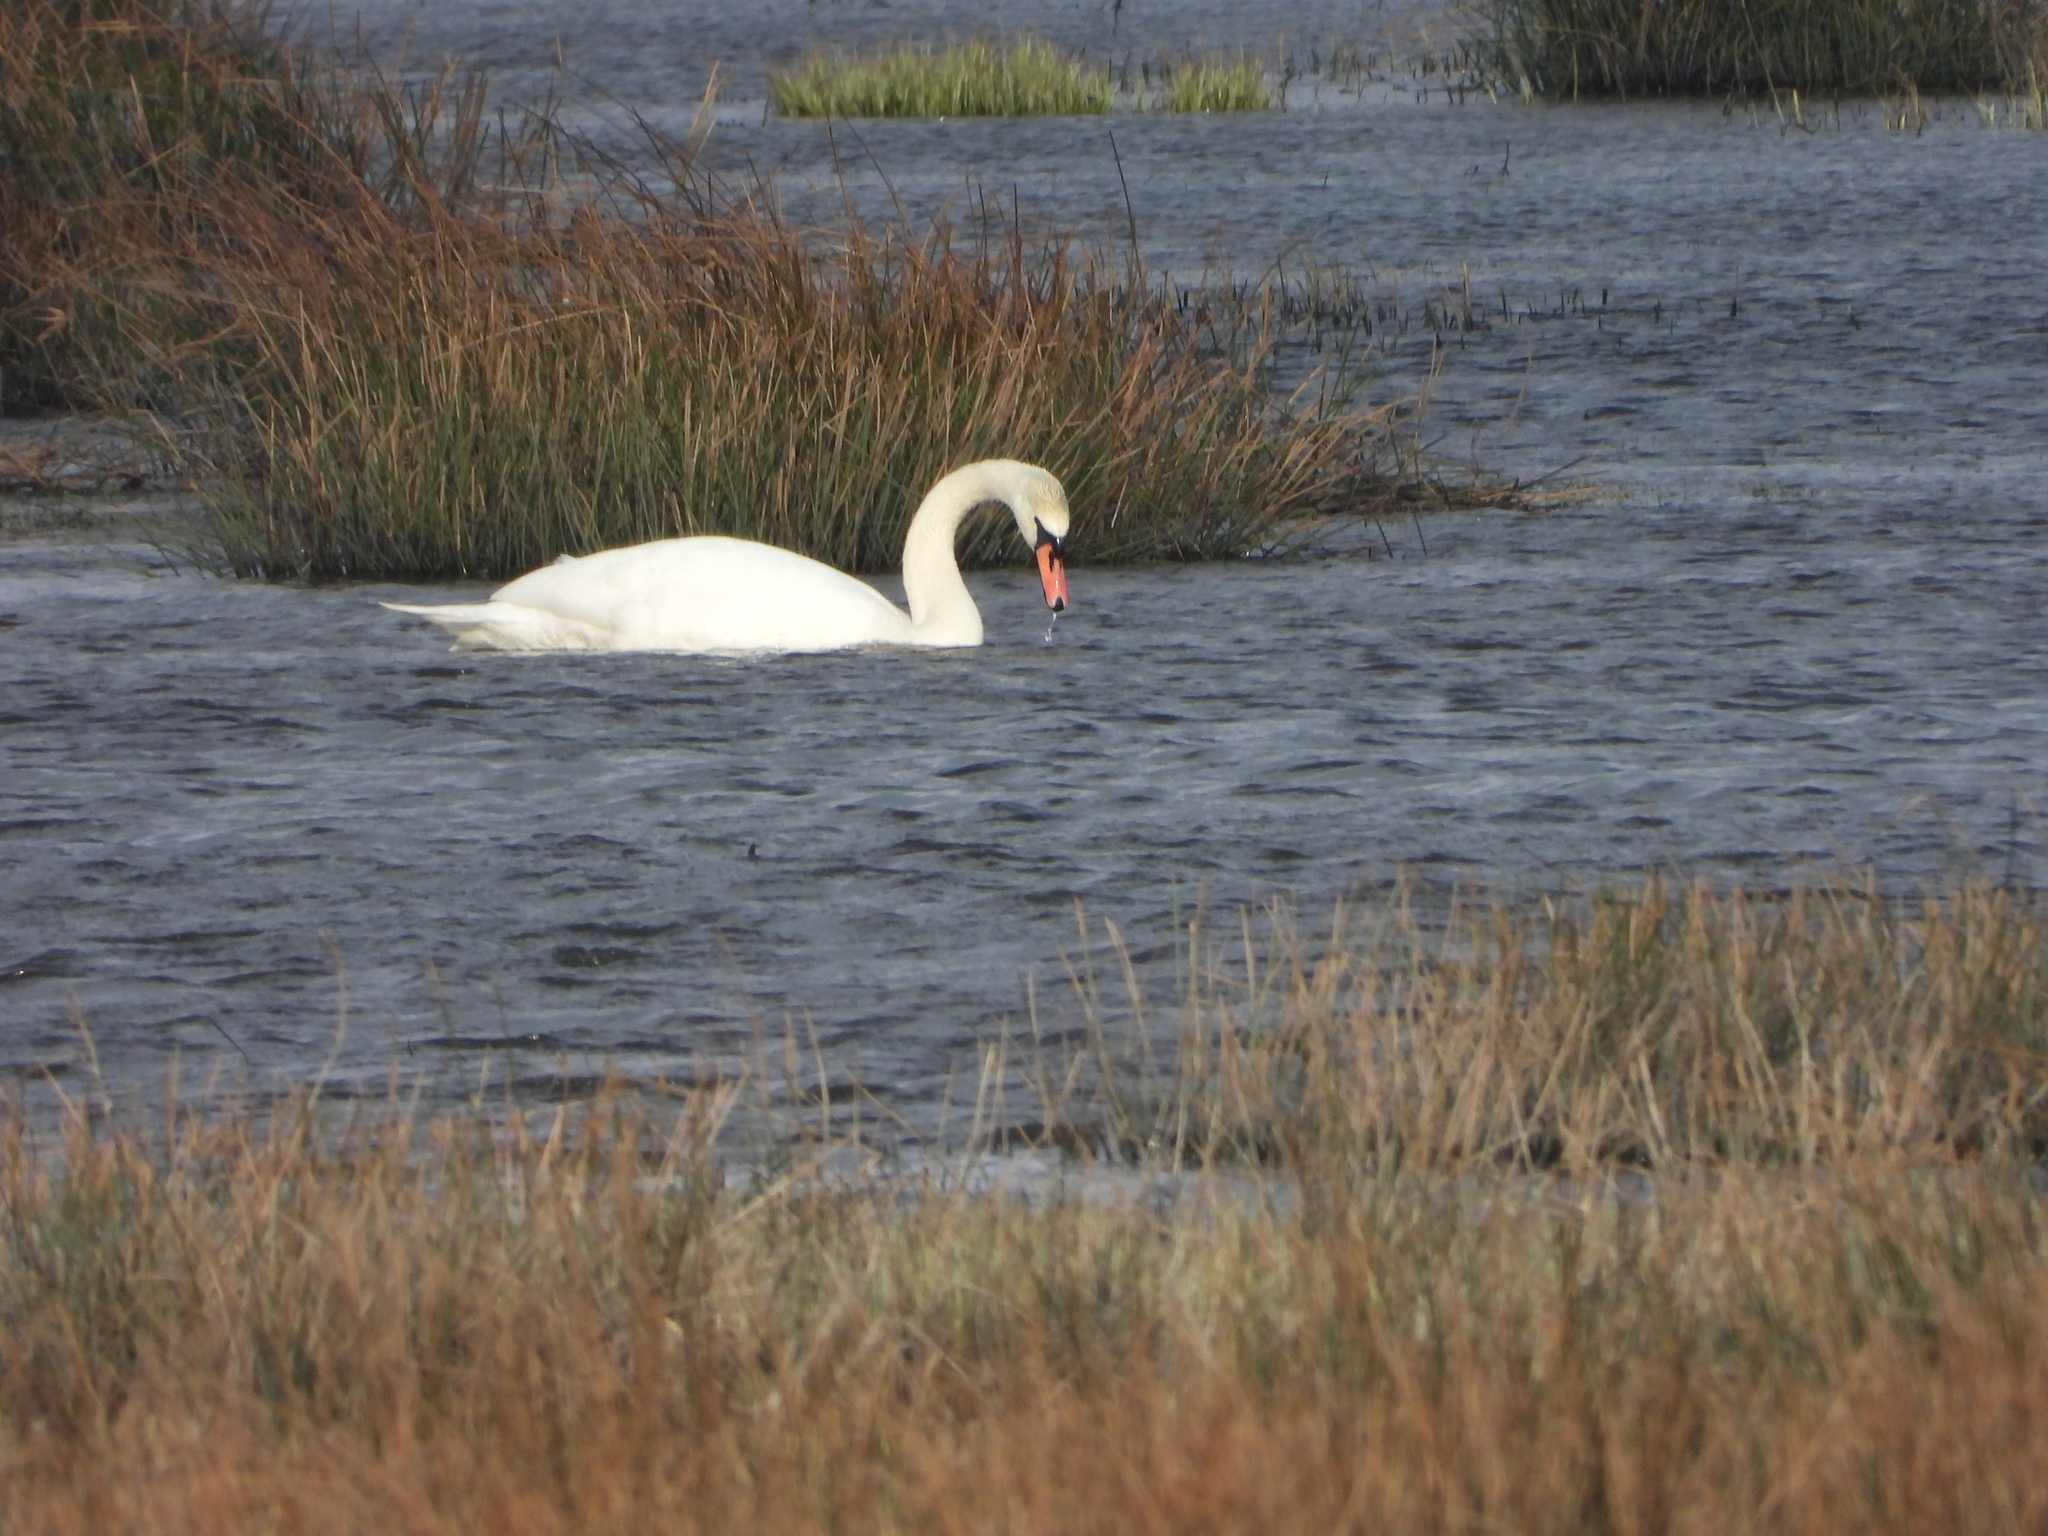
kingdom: Animalia
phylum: Chordata
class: Aves
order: Anseriformes
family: Anatidae
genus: Cygnus
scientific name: Cygnus olor
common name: Mute swan
